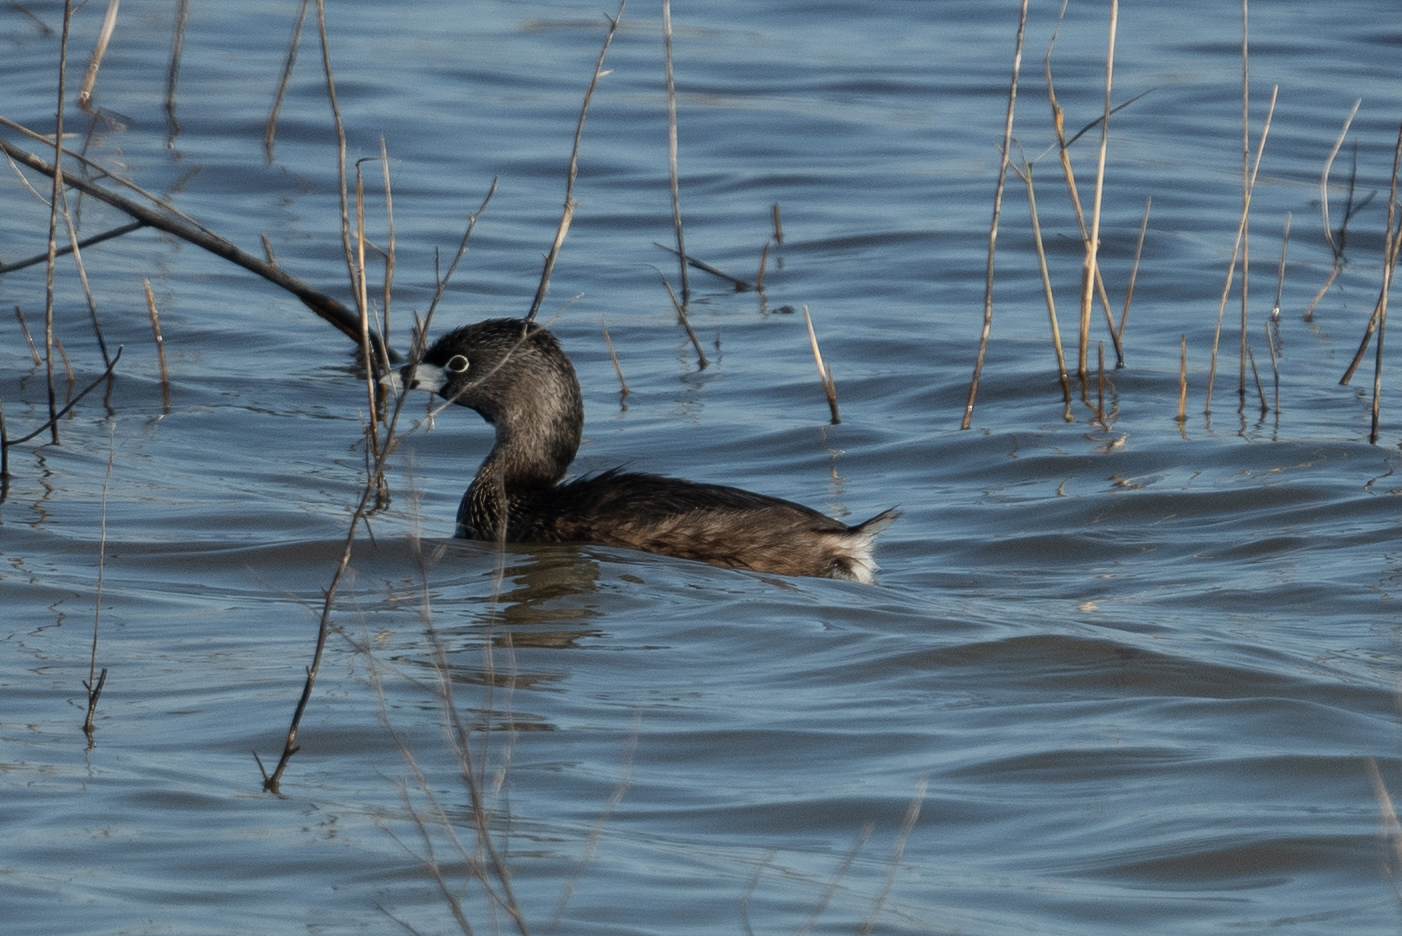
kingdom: Animalia
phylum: Chordata
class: Aves
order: Podicipediformes
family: Podicipedidae
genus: Podilymbus
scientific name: Podilymbus podiceps
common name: Pied-billed grebe
